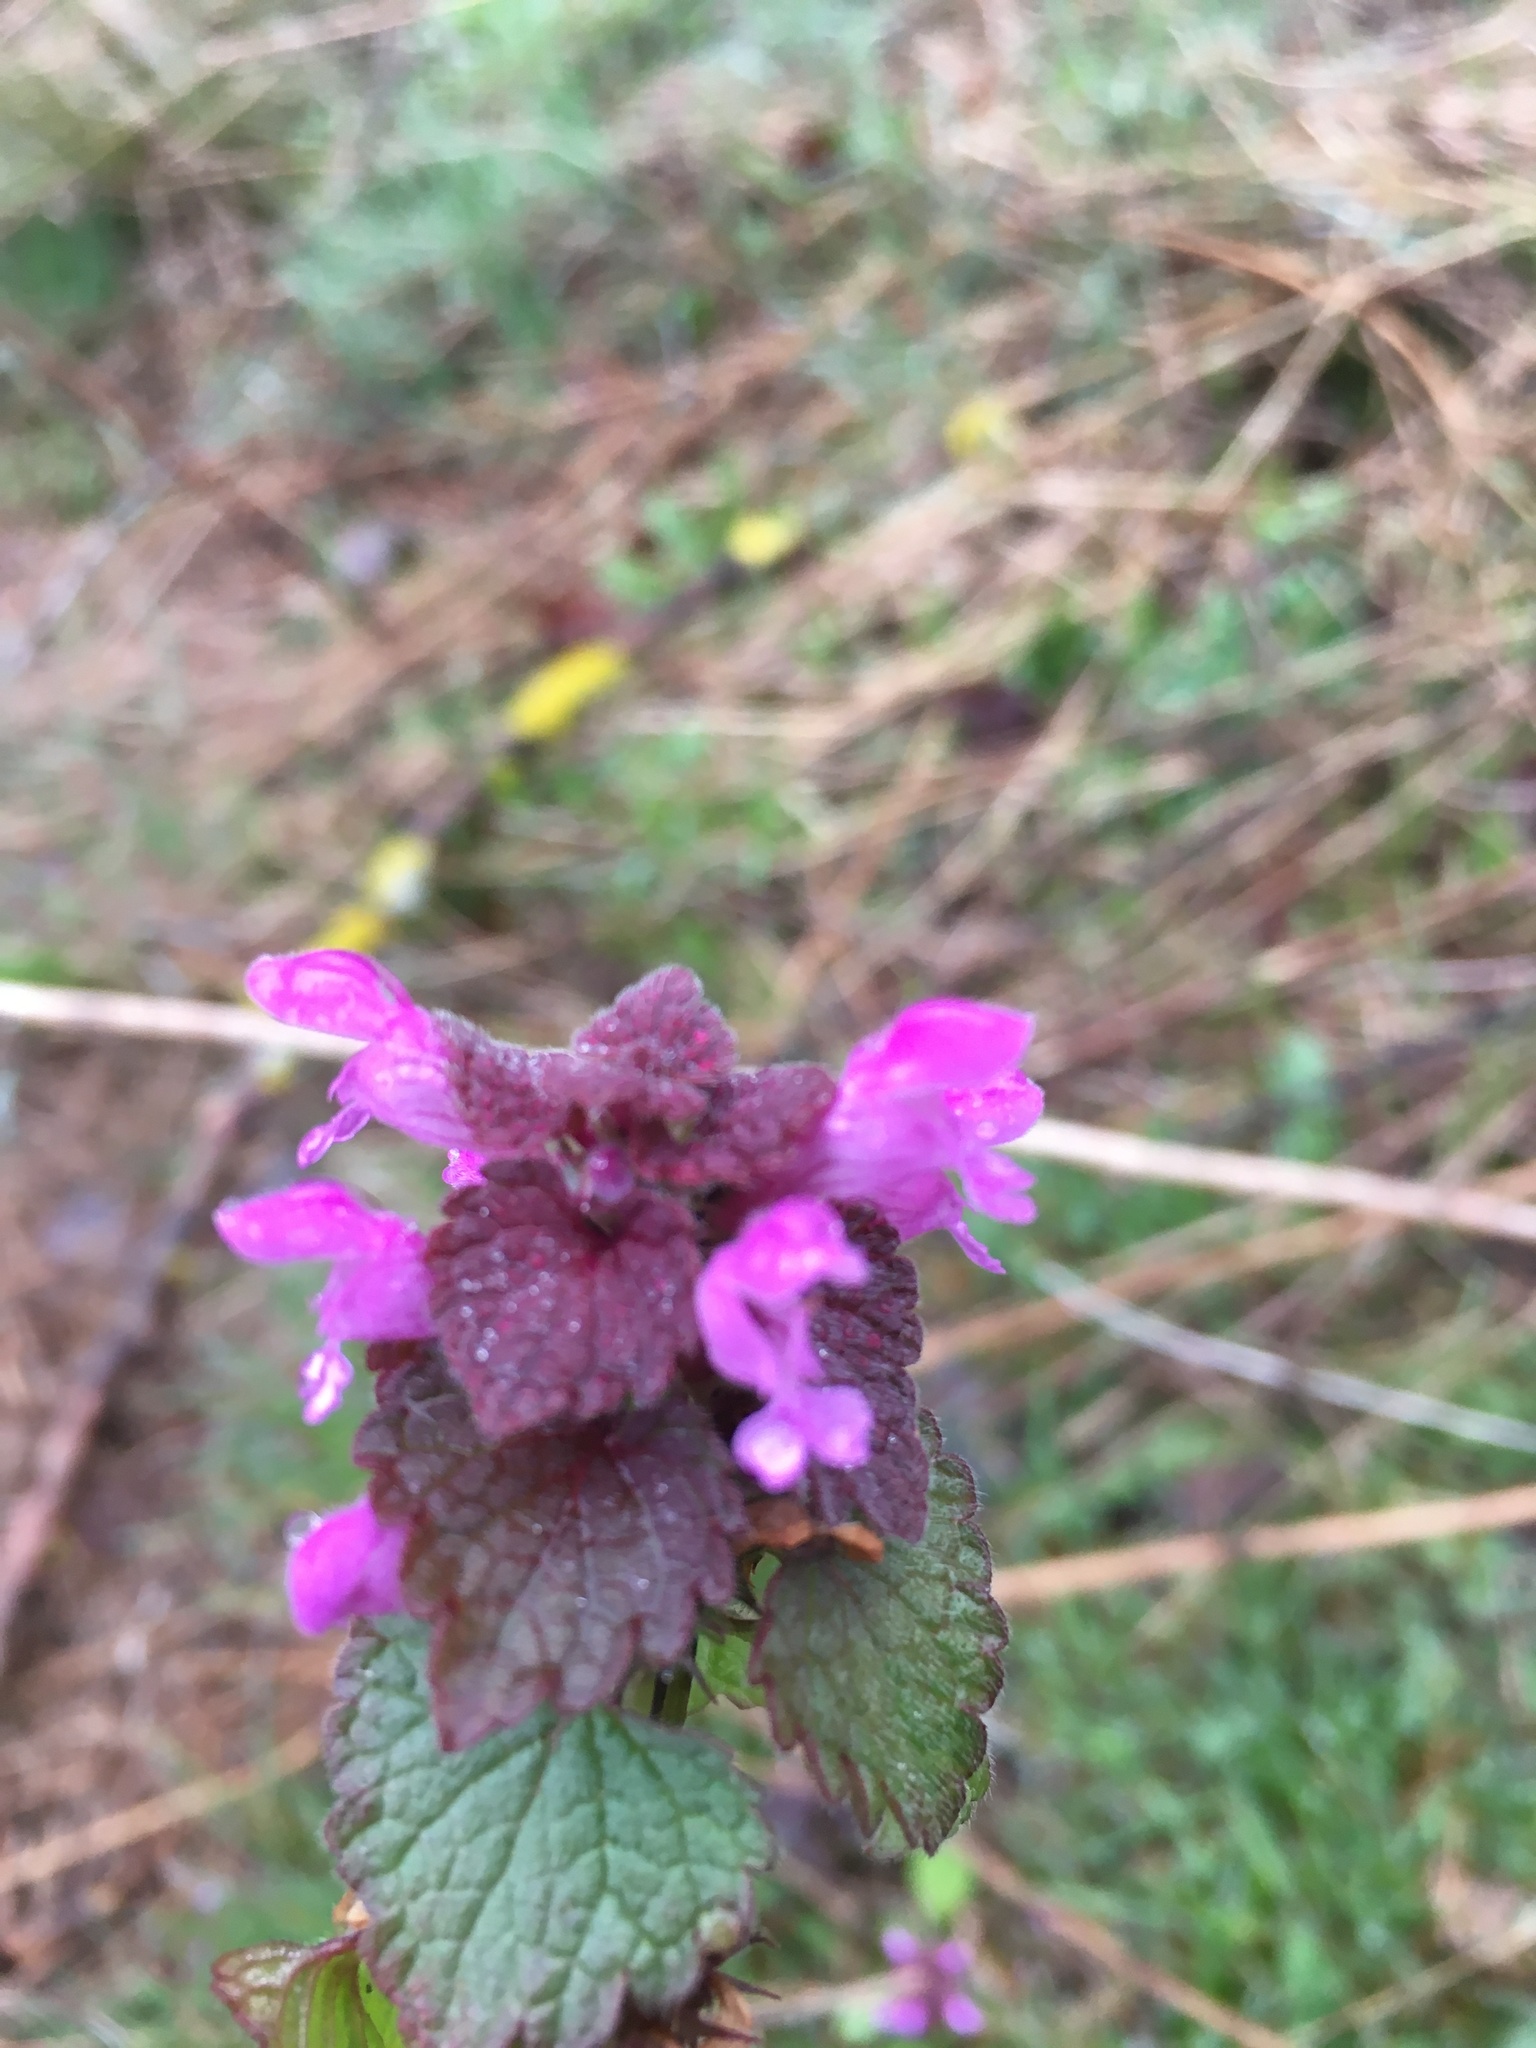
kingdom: Plantae
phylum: Tracheophyta
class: Magnoliopsida
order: Lamiales
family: Lamiaceae
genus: Lamium
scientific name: Lamium purpureum
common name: Red dead-nettle
